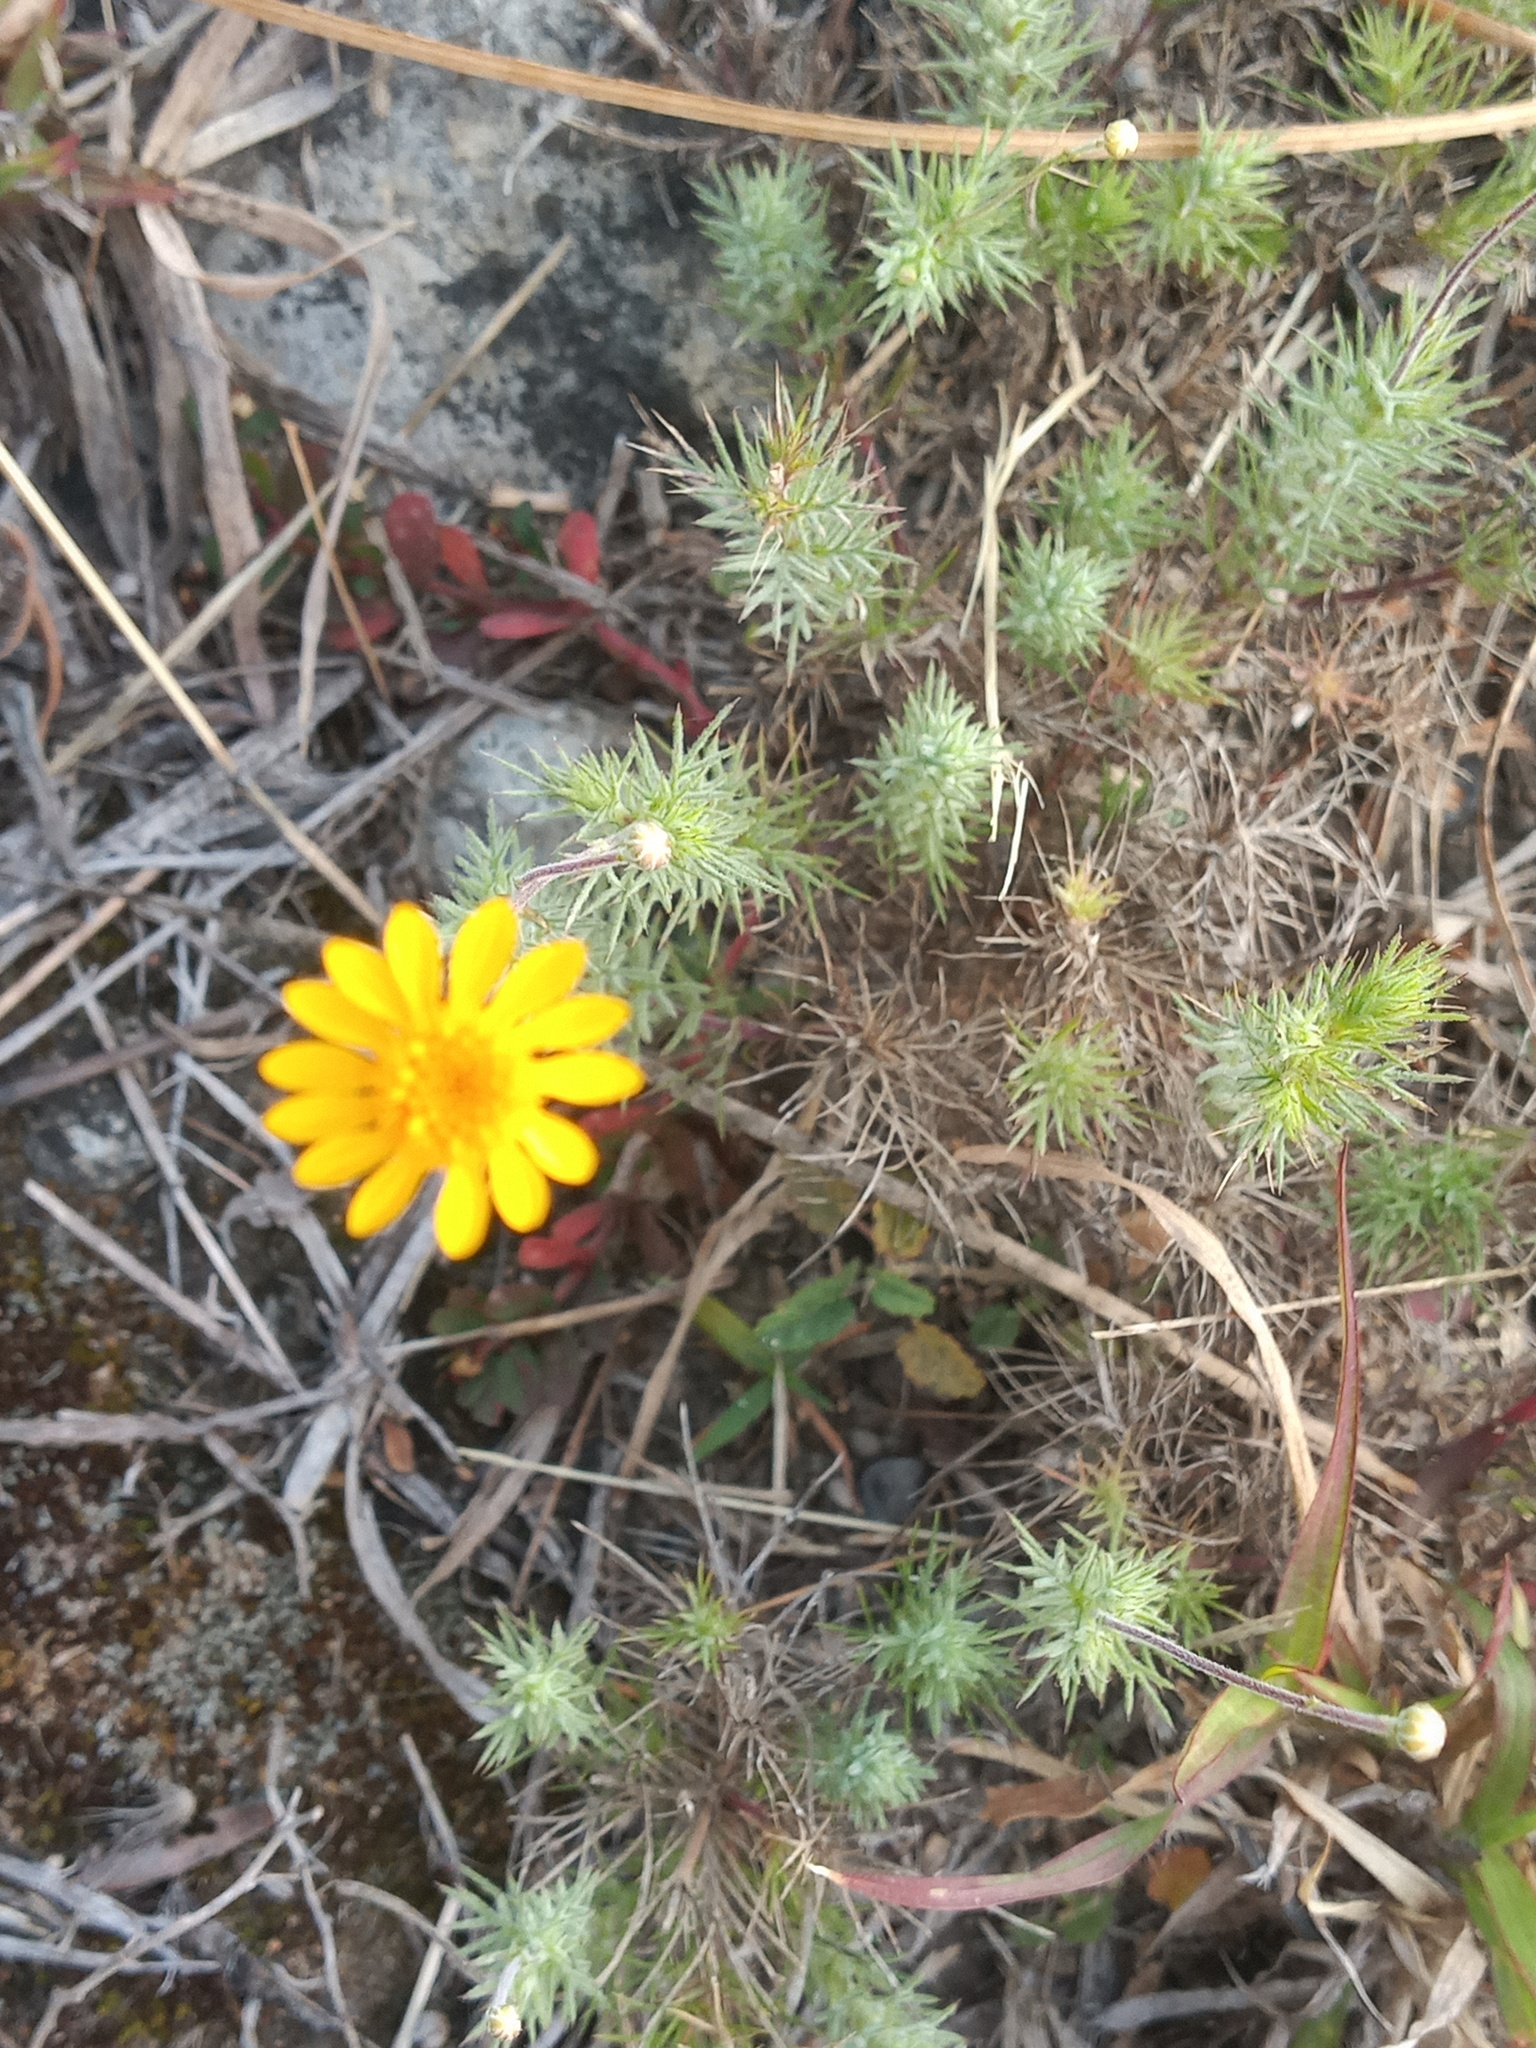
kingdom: Plantae
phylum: Tracheophyta
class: Magnoliopsida
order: Asterales
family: Asteraceae
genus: Thymophylla
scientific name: Thymophylla pentachaeta
